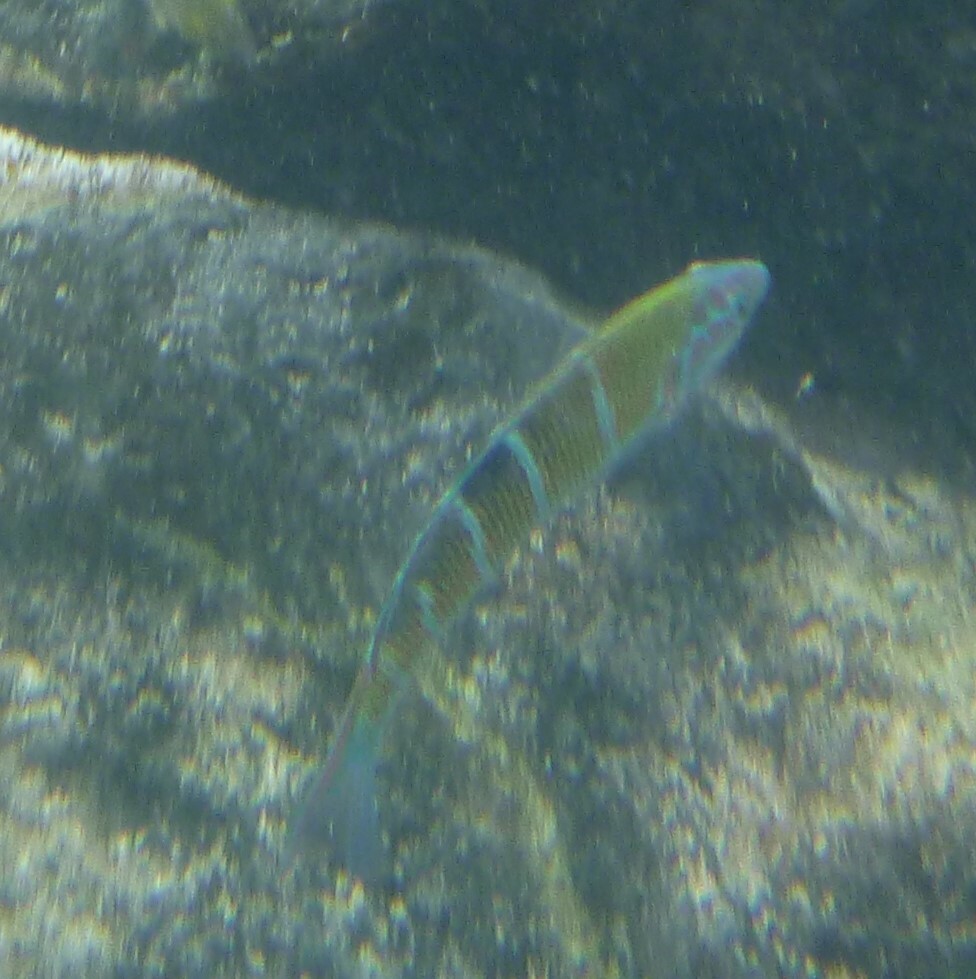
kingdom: Animalia
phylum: Chordata
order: Perciformes
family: Labridae
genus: Thalassoma
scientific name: Thalassoma pavo
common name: Ornate wrasse
